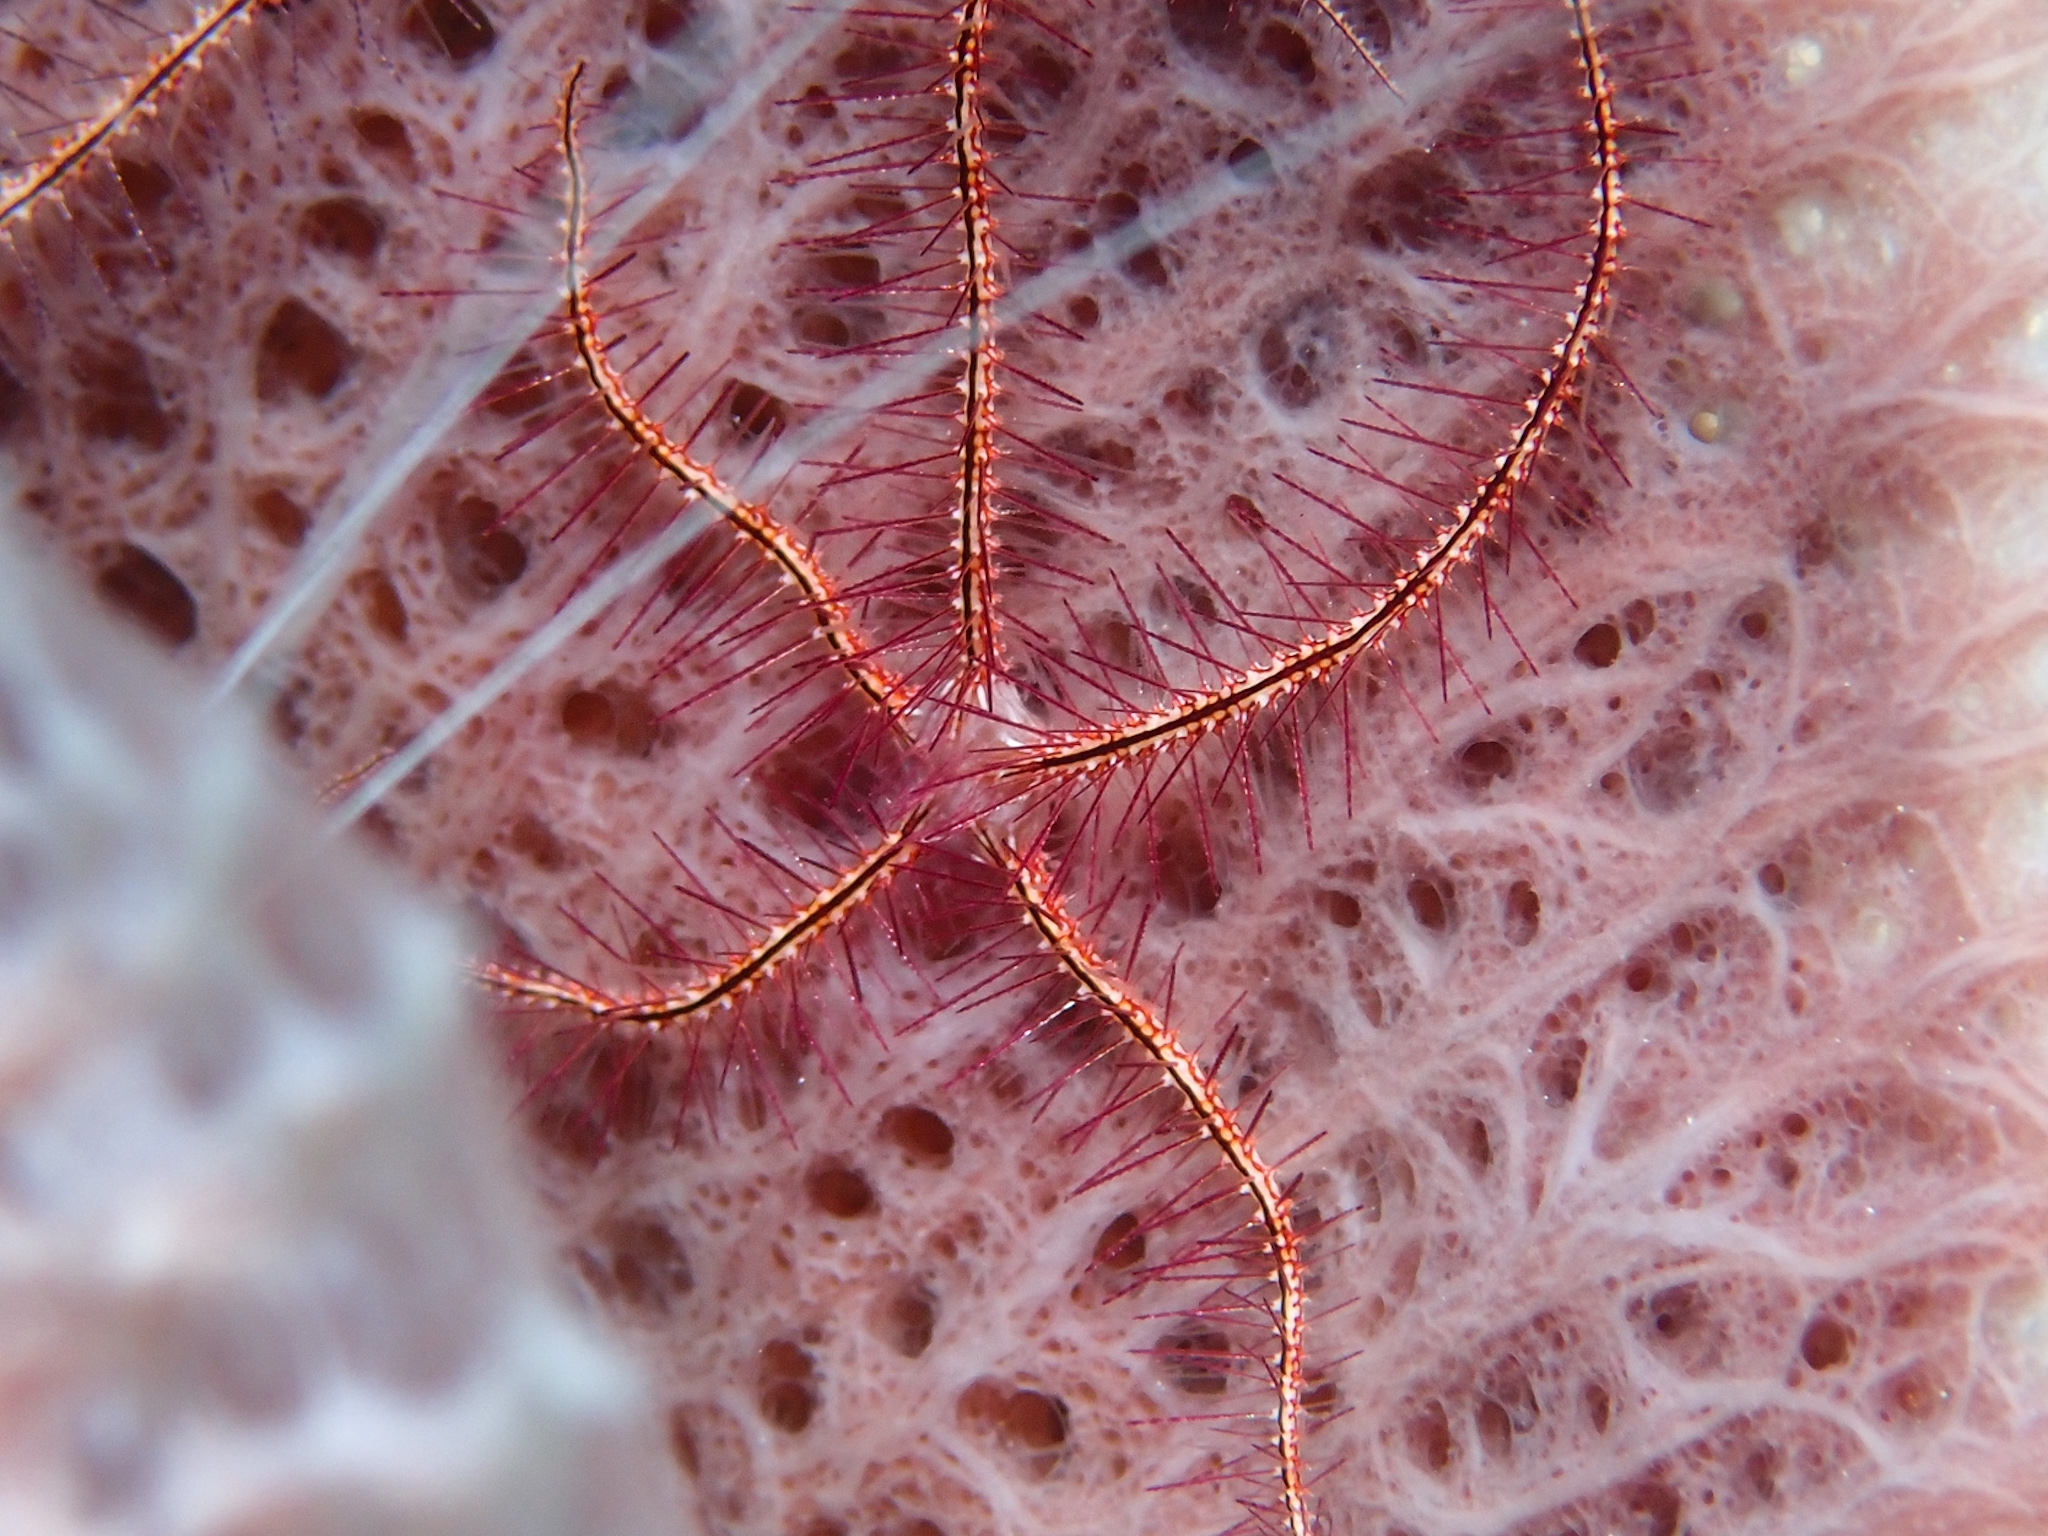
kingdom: Animalia
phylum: Echinodermata
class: Ophiuroidea
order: Amphilepidida
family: Ophiotrichidae
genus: Ophiothrix
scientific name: Ophiothrix suensonii
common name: Sponge brittle star
